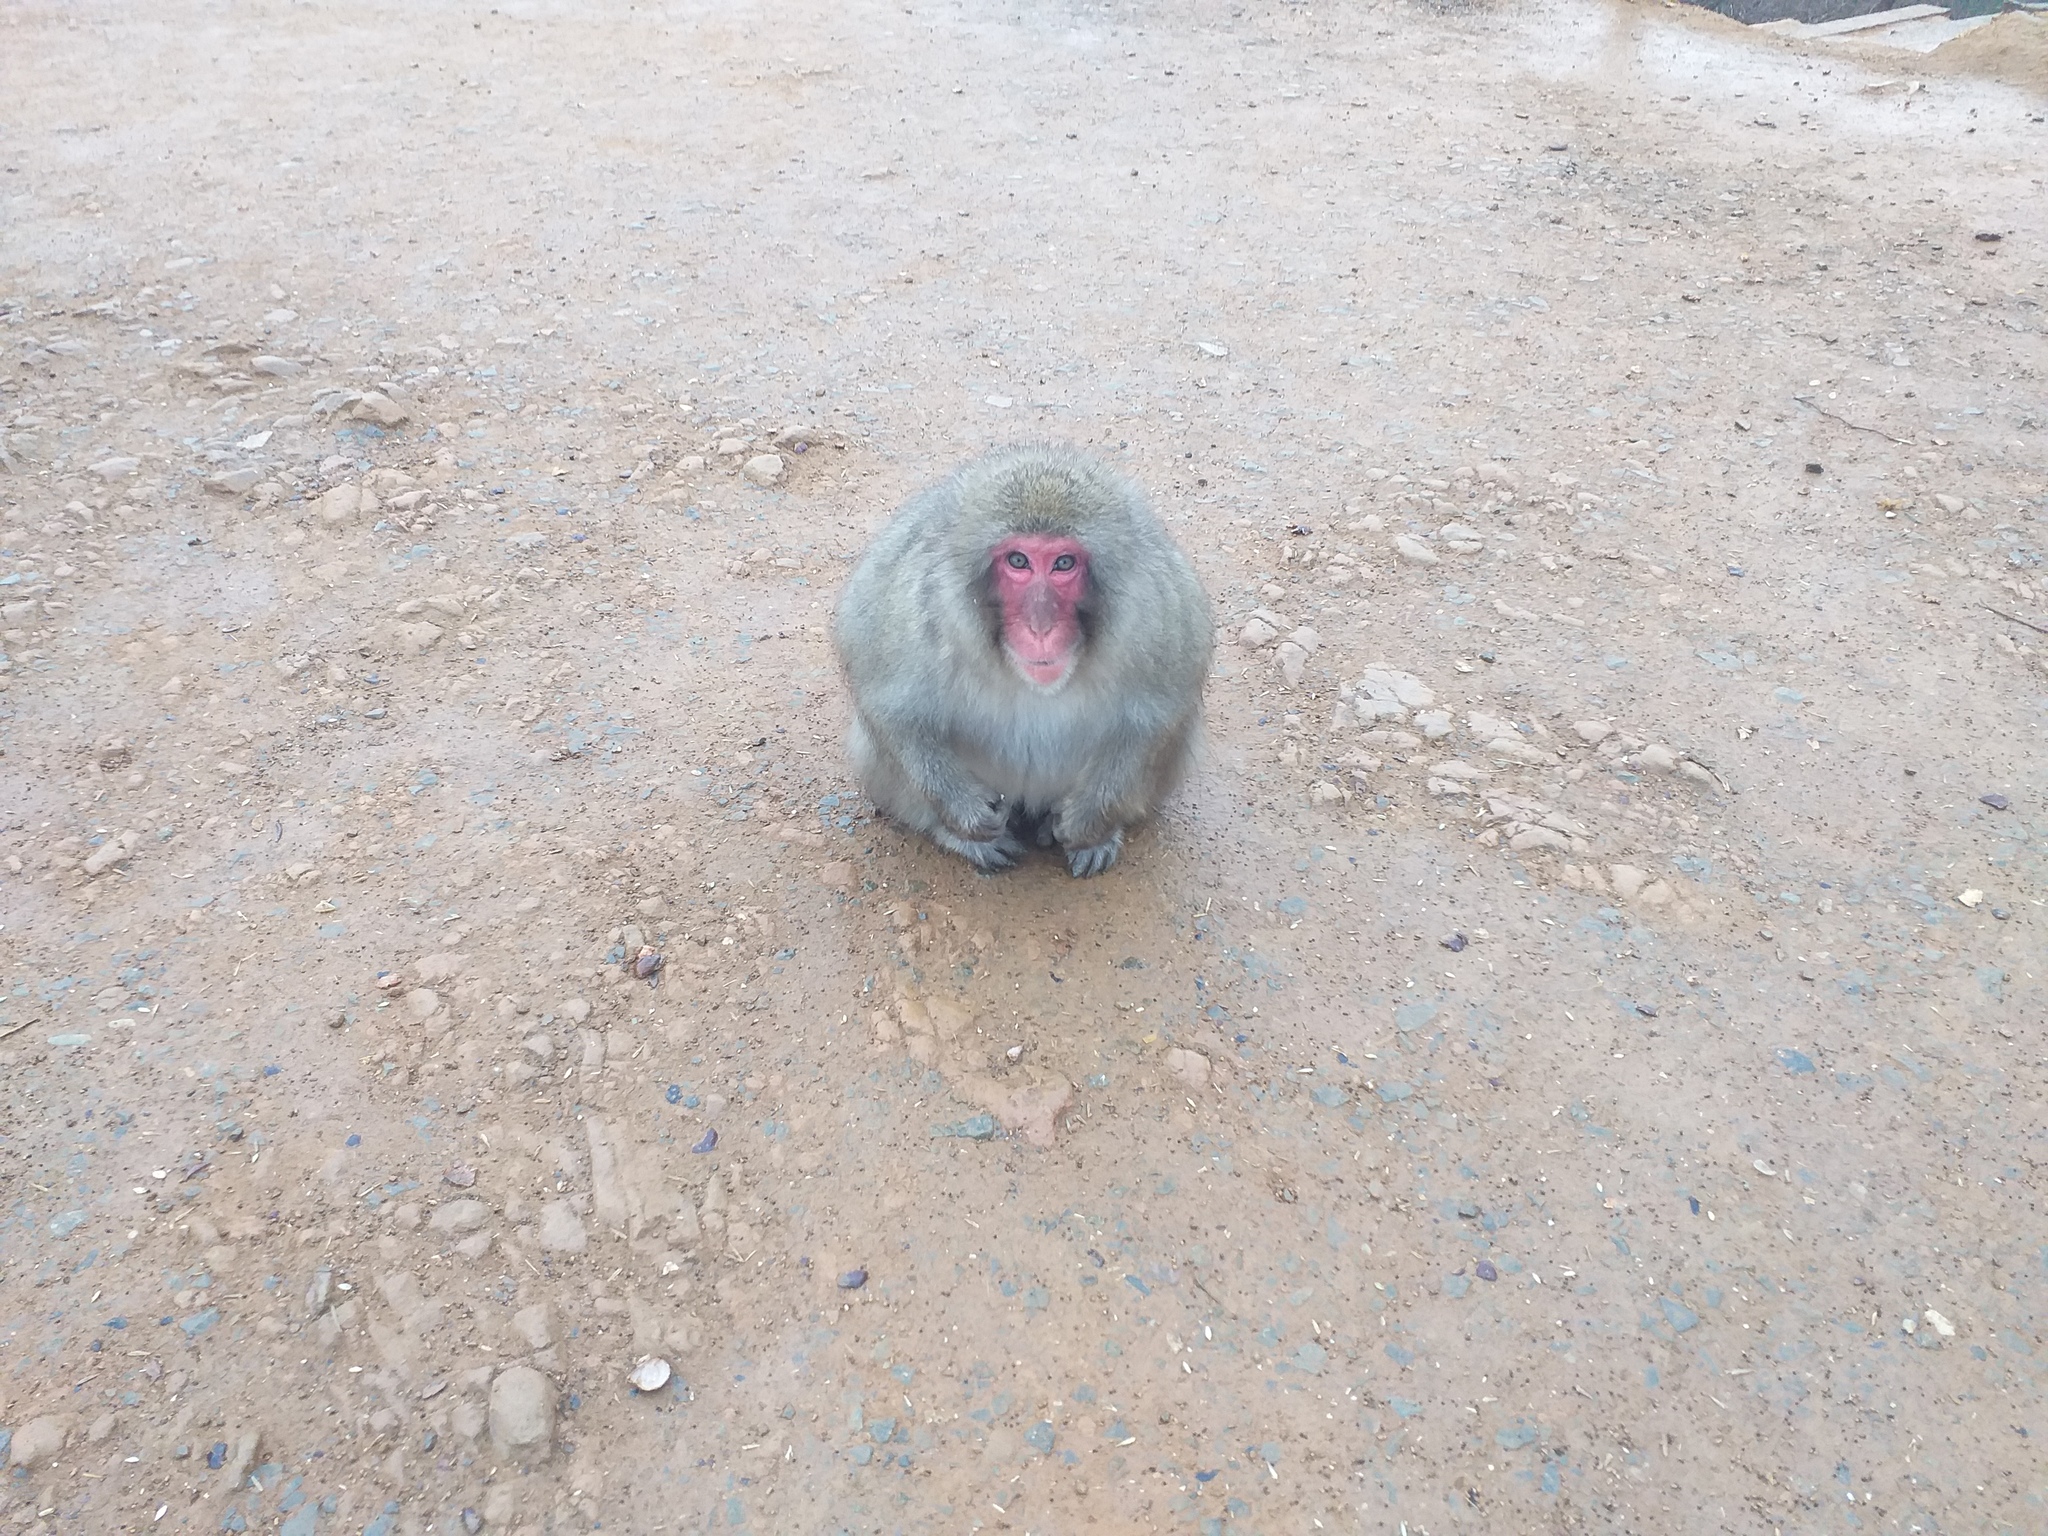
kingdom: Animalia
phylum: Chordata
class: Mammalia
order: Primates
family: Cercopithecidae
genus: Macaca
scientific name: Macaca fuscata
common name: Japanese macaque
